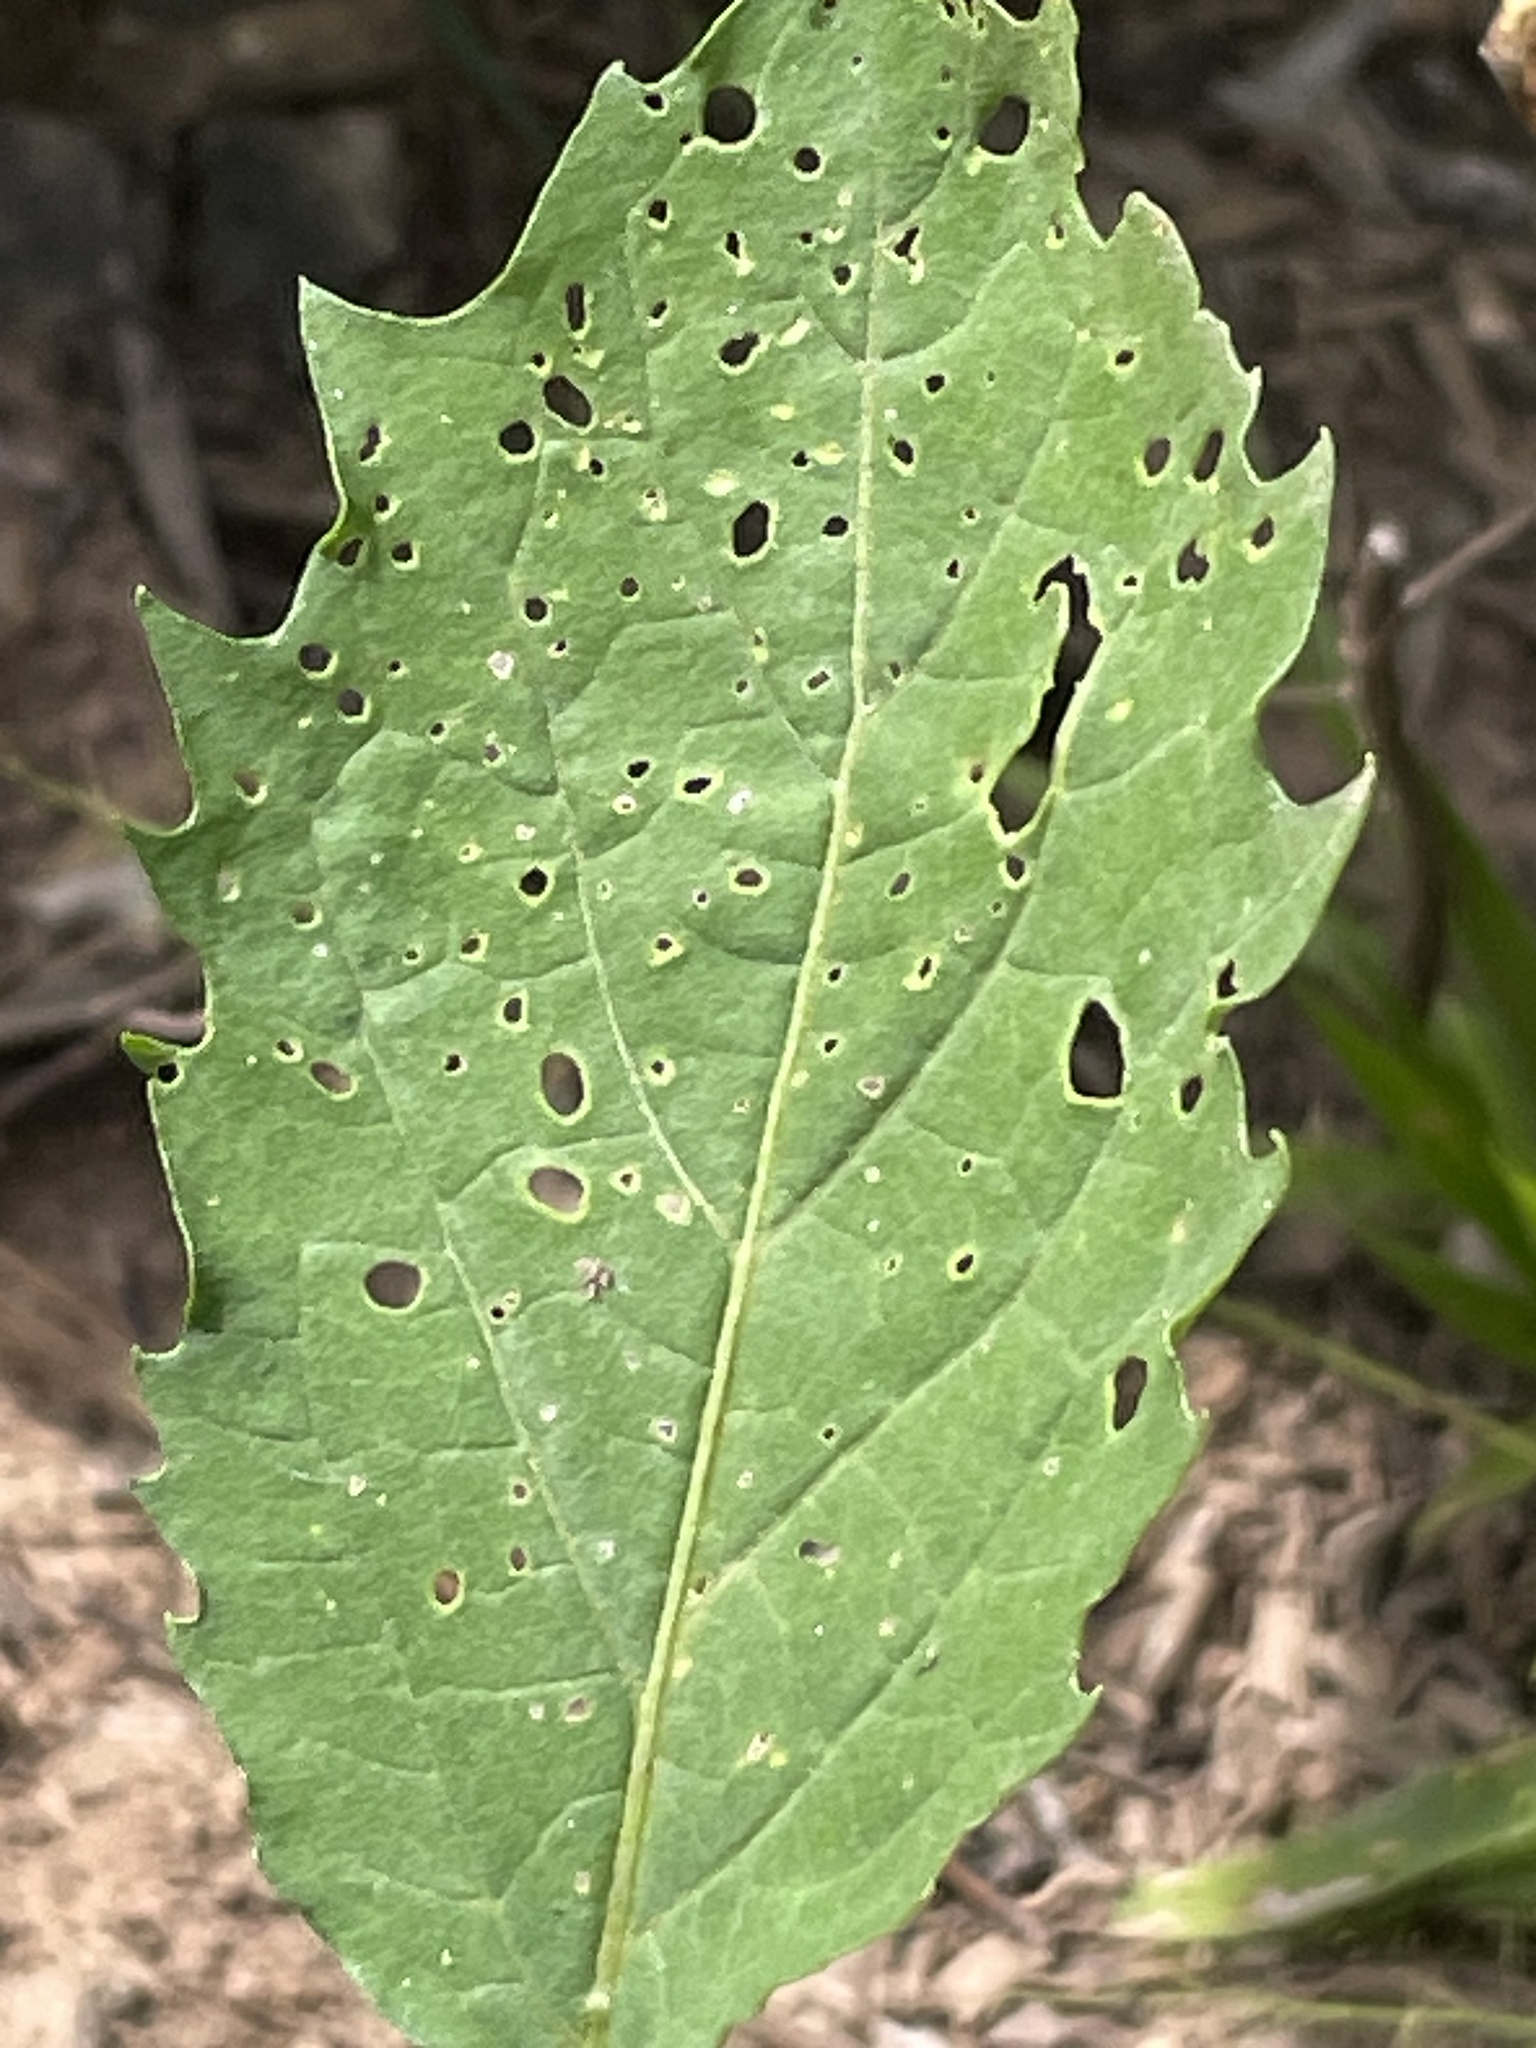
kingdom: Plantae
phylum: Tracheophyta
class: Magnoliopsida
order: Solanales
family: Solanaceae
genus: Physalis
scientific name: Physalis angulata
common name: Angular winter-cherry
